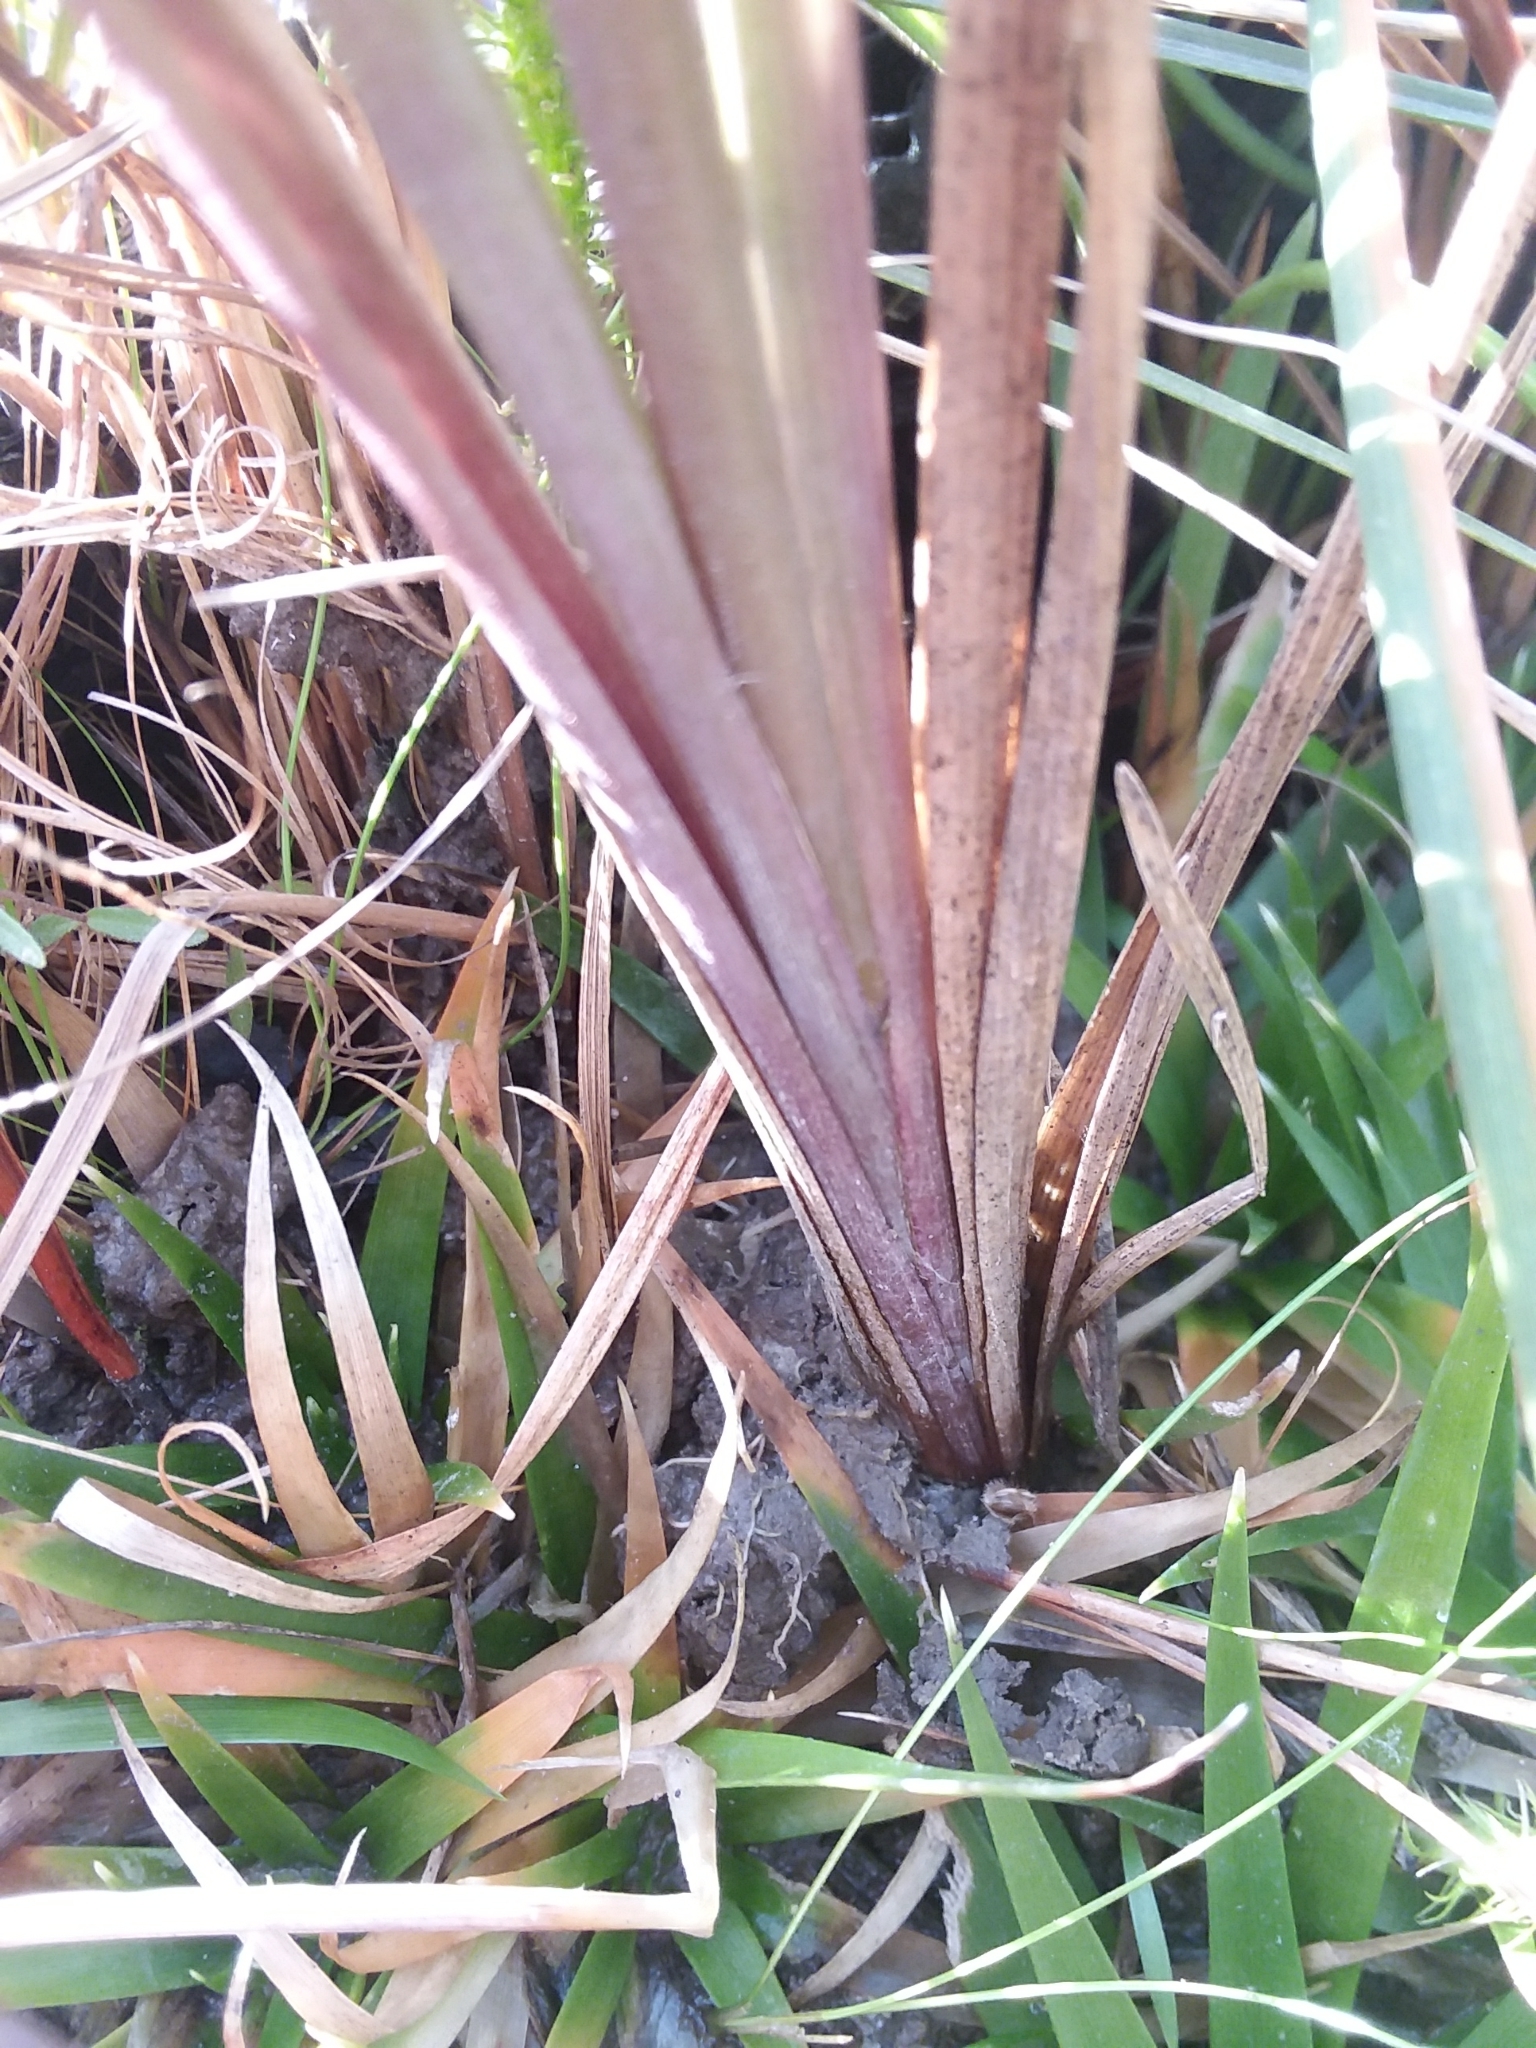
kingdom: Plantae
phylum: Tracheophyta
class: Liliopsida
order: Poales
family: Poaceae
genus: Anthenantia
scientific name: Anthenantia rufa
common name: Purple silkyscale
